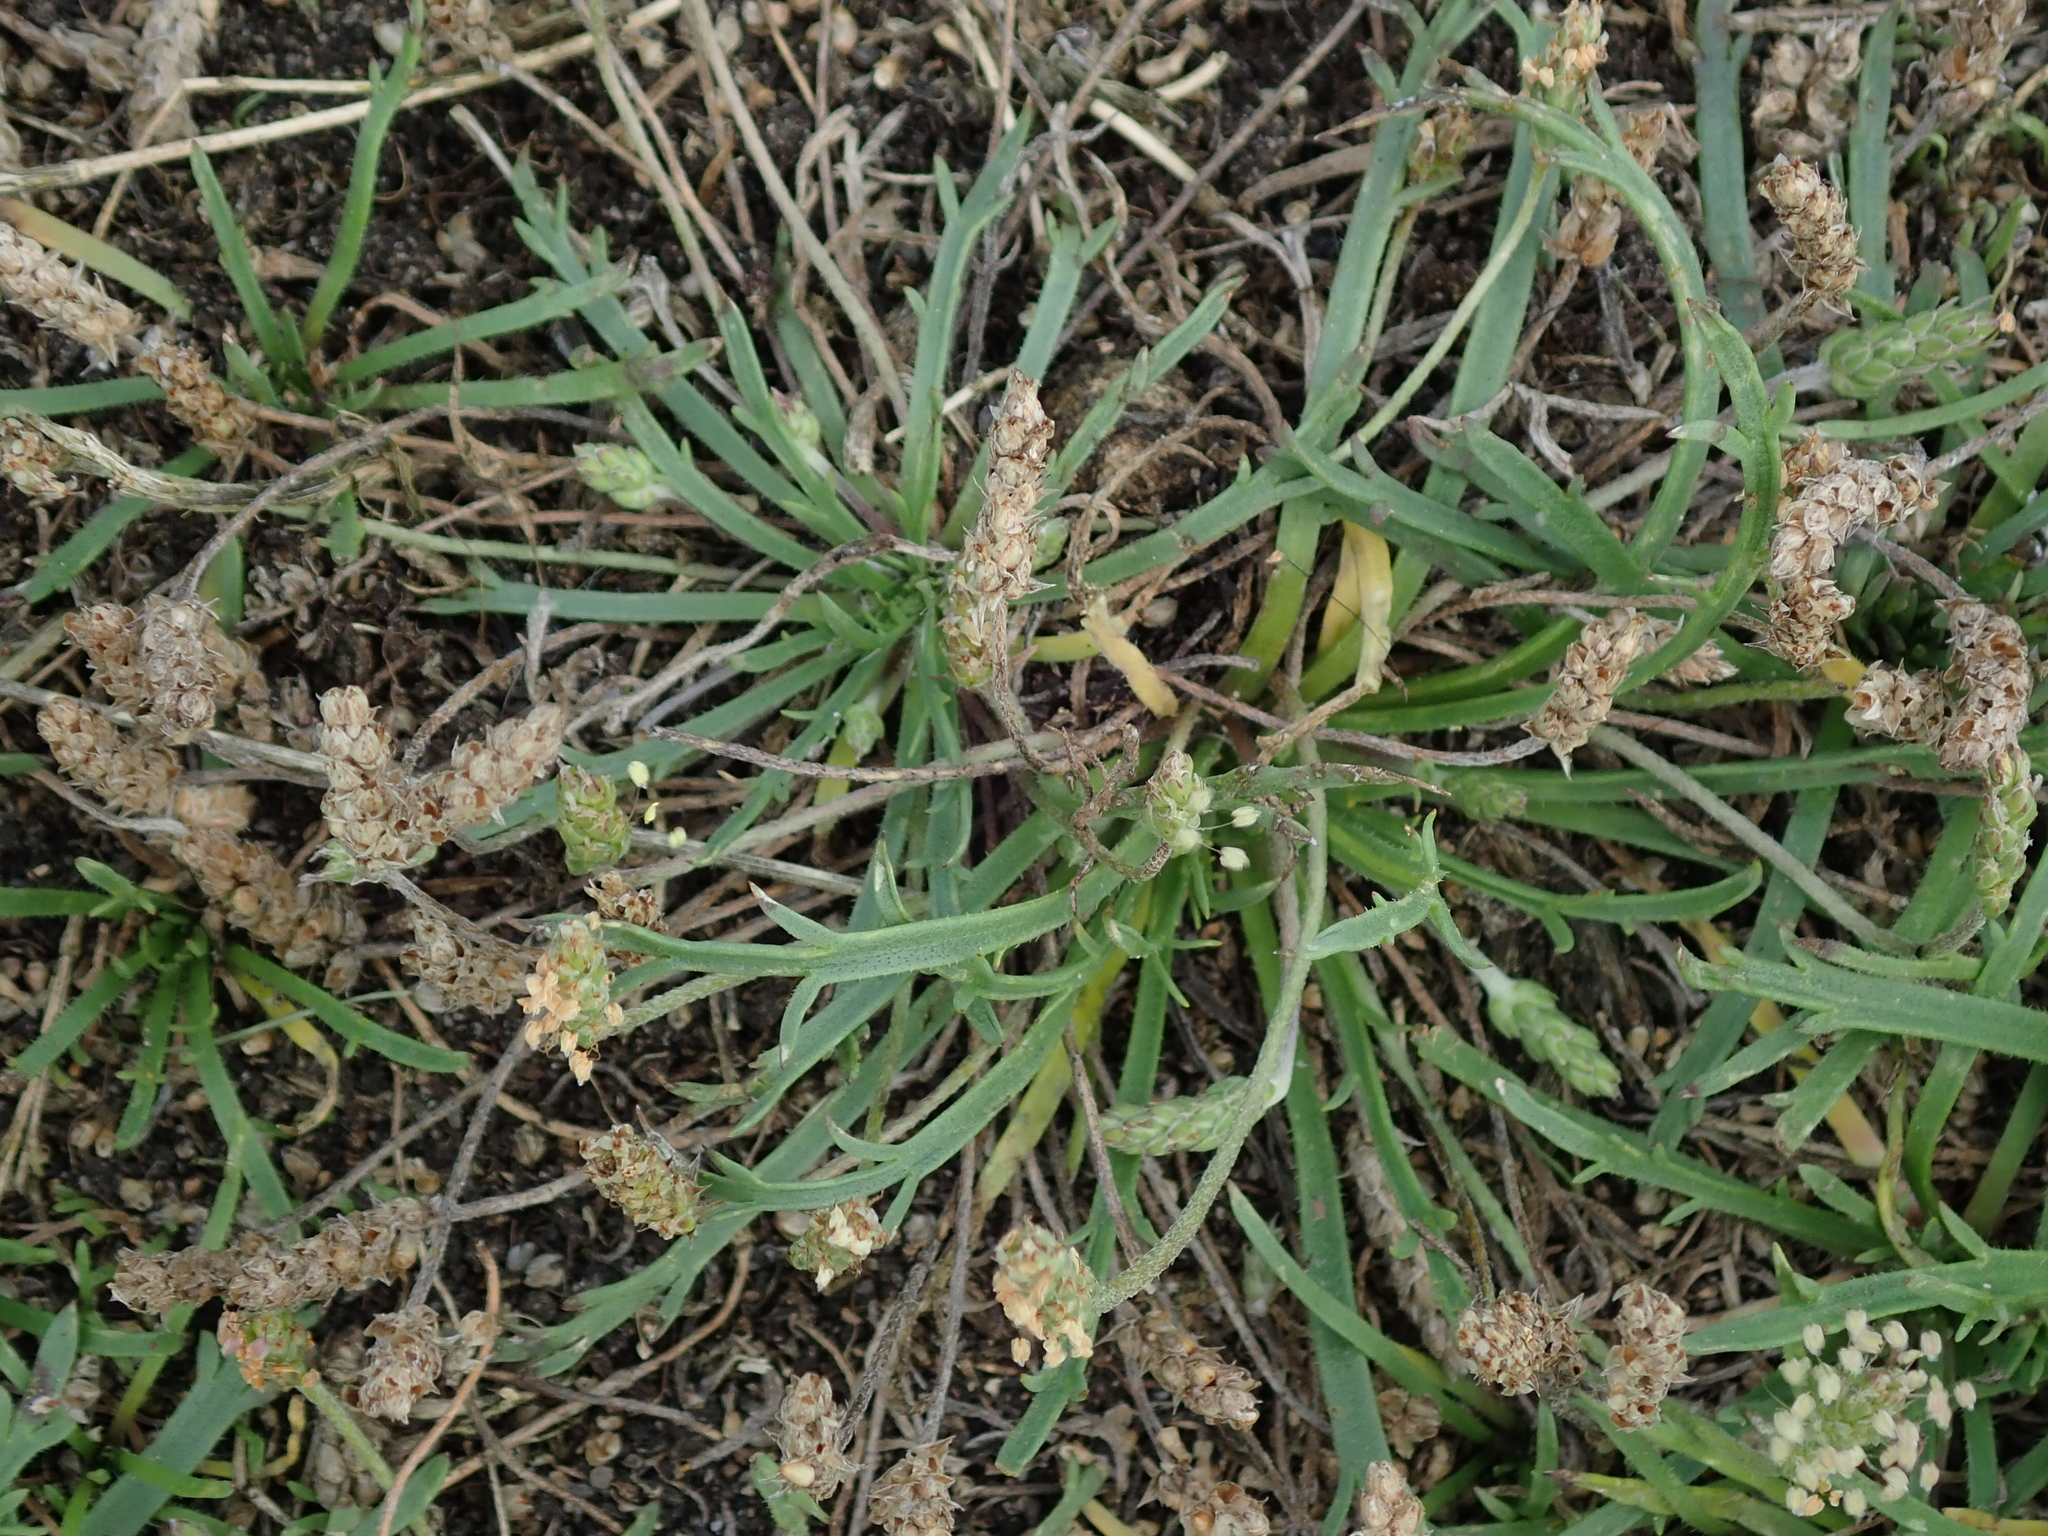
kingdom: Plantae
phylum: Tracheophyta
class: Magnoliopsida
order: Lamiales
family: Plantaginaceae
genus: Plantago
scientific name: Plantago coronopus
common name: Buck's-horn plantain
